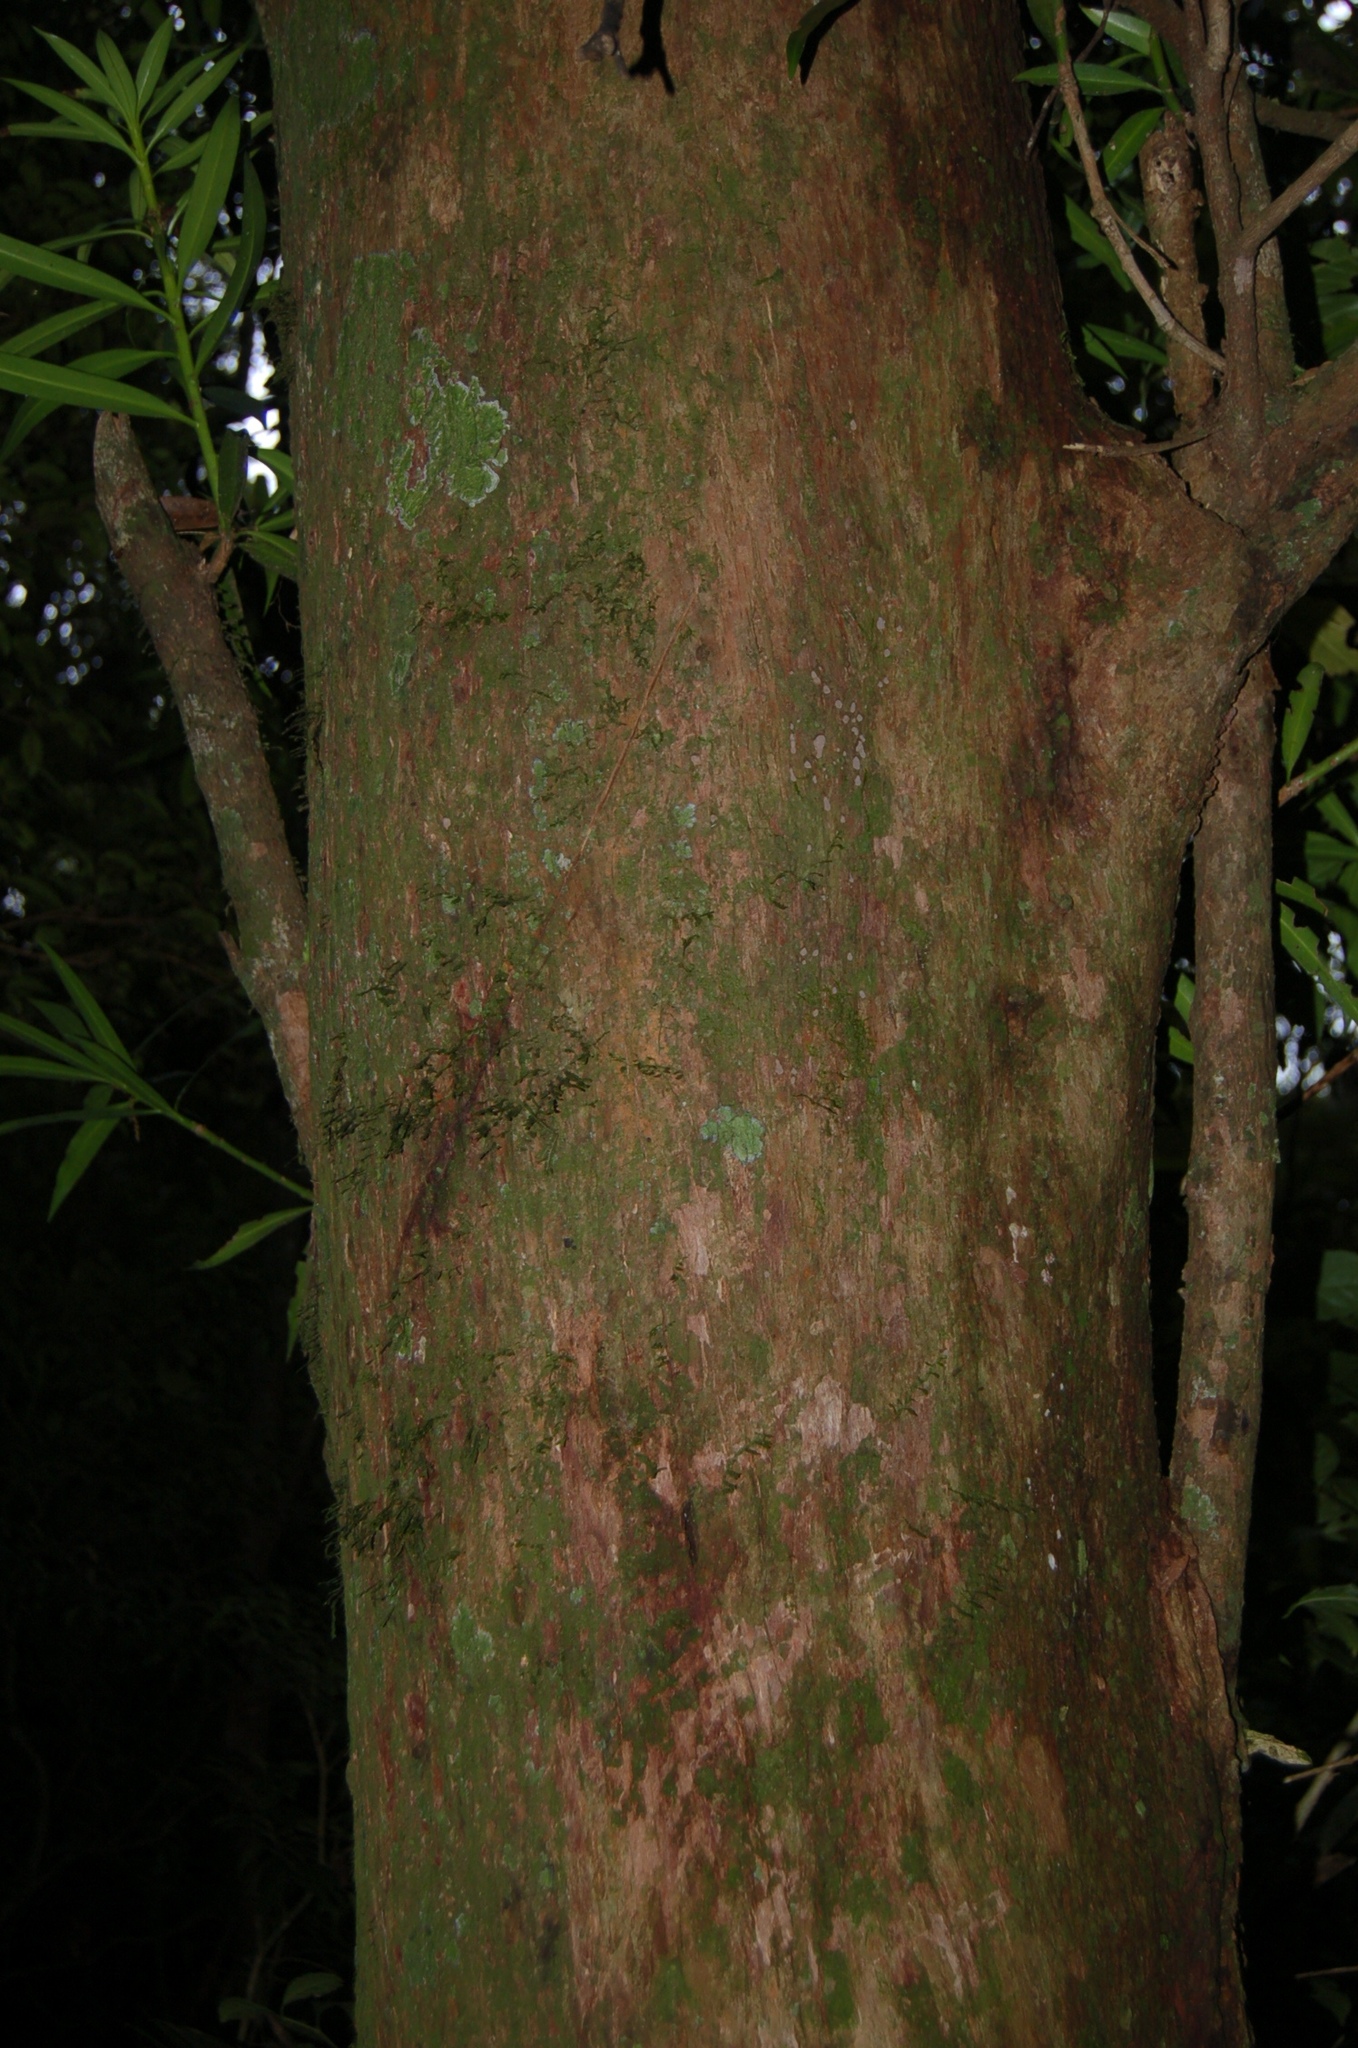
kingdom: Plantae
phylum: Tracheophyta
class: Pinopsida
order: Pinales
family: Podocarpaceae
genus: Podocarpus
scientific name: Podocarpus matudae
